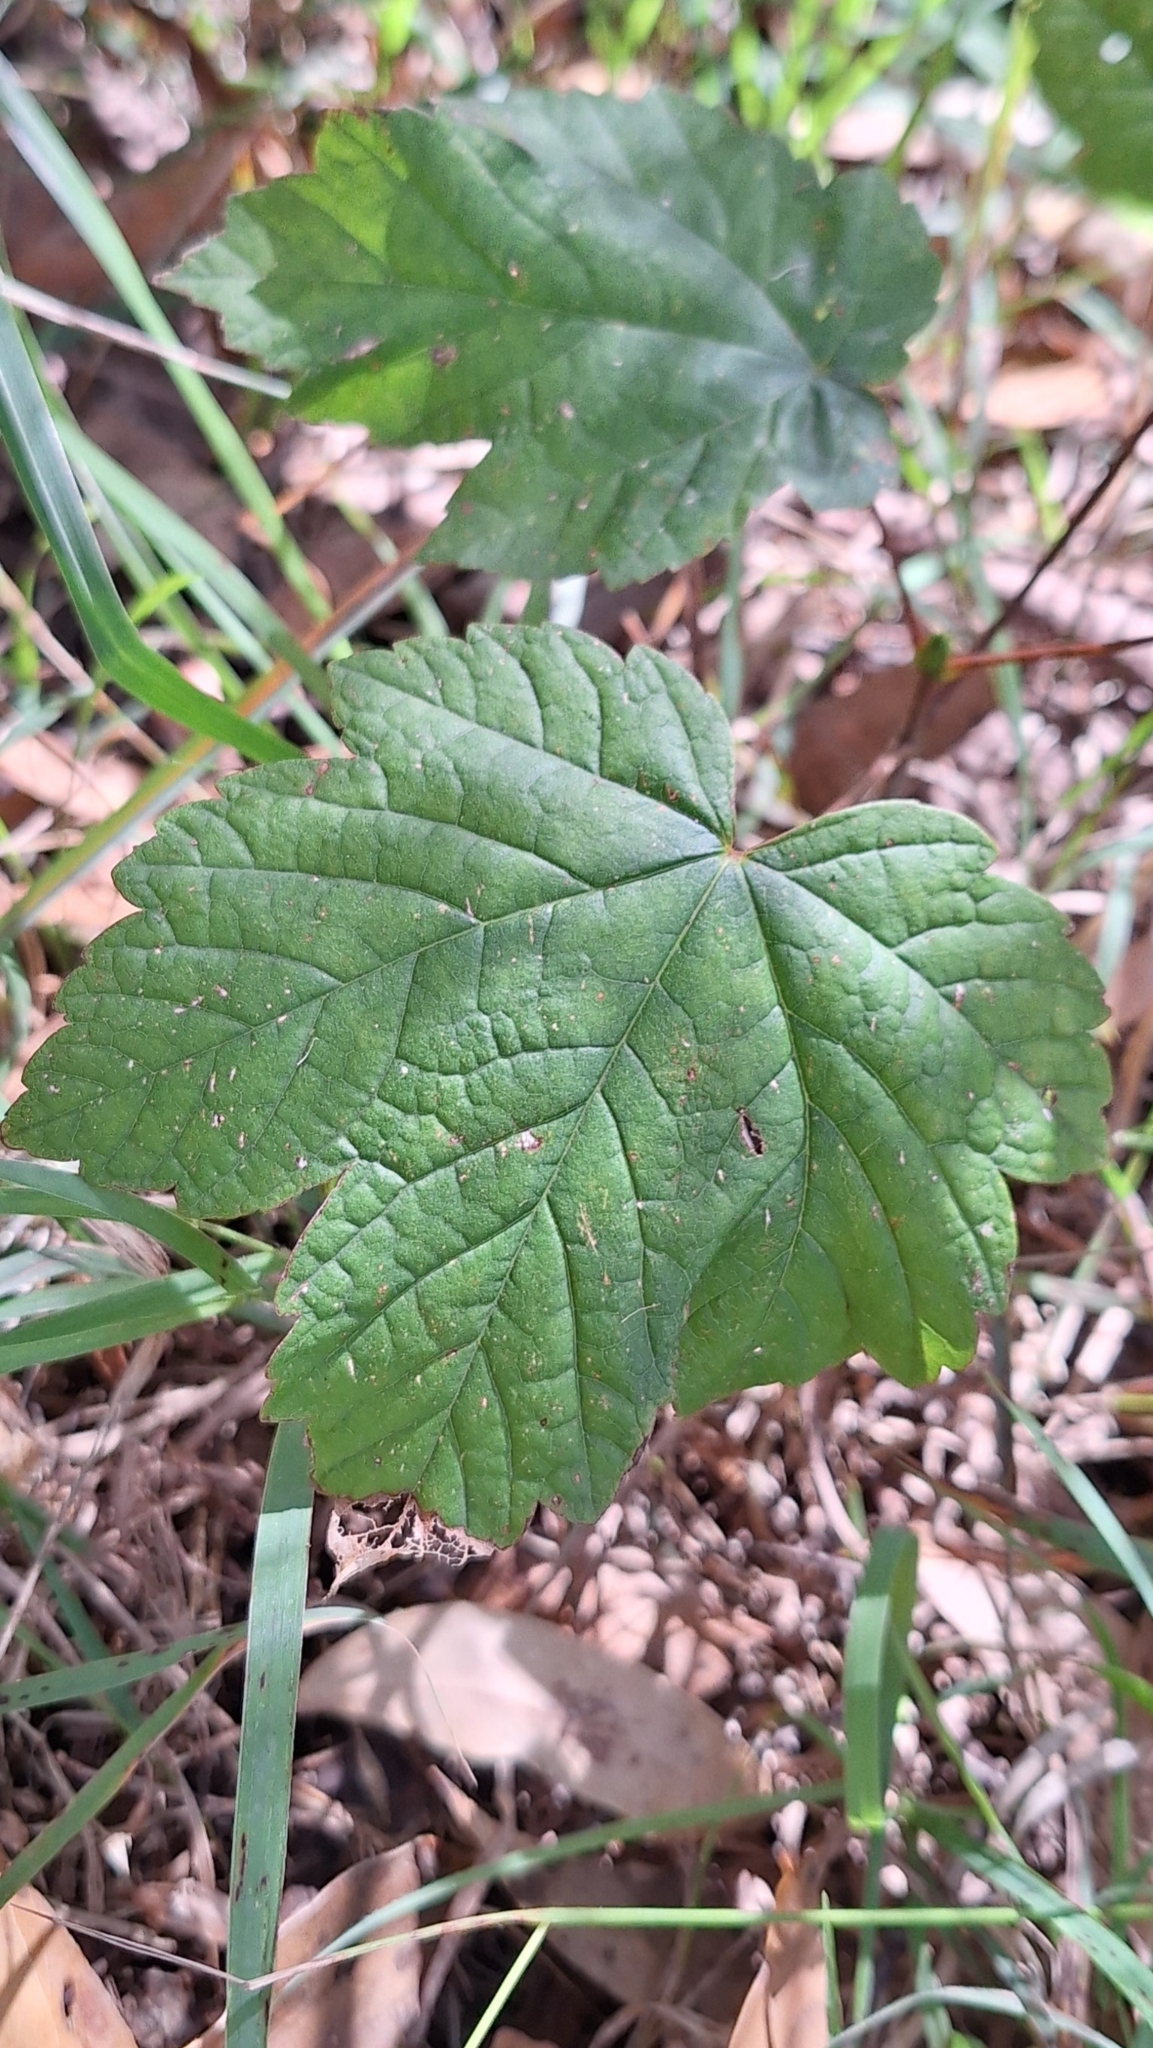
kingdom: Plantae
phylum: Tracheophyta
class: Magnoliopsida
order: Sapindales
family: Sapindaceae
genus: Acer
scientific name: Acer pseudoplatanus
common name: Sycamore
